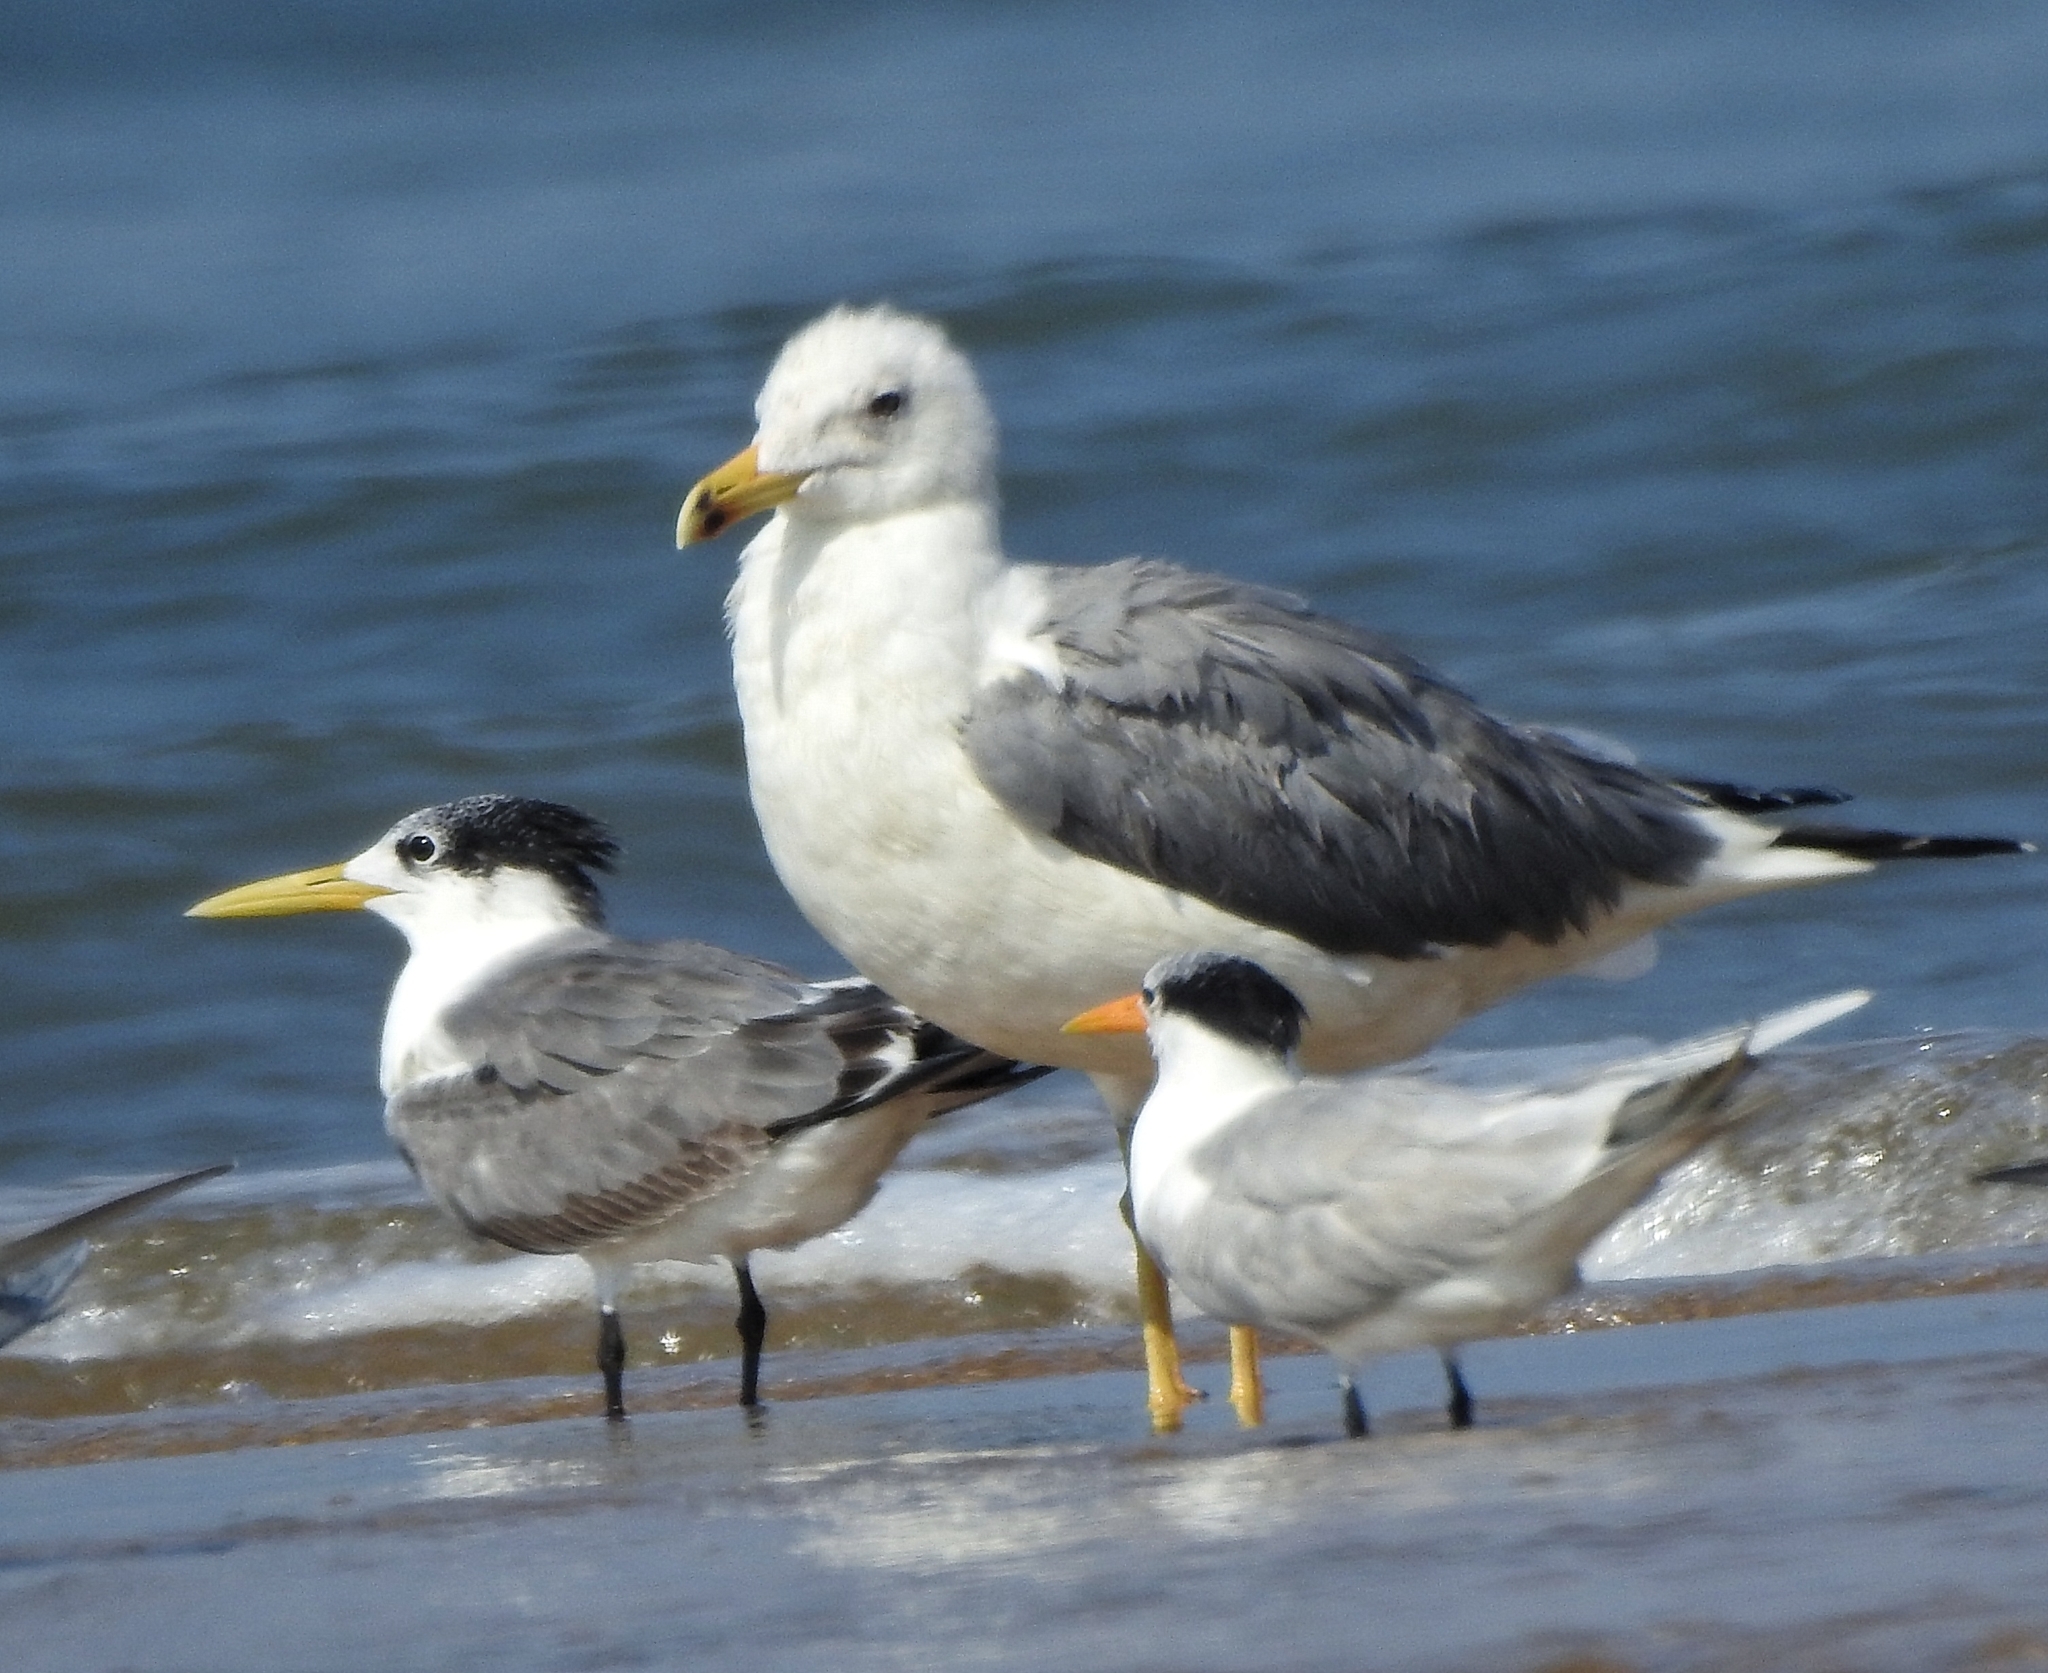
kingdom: Animalia
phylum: Chordata
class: Aves
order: Charadriiformes
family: Laridae
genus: Thalasseus
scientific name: Thalasseus bergii
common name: Greater crested tern
